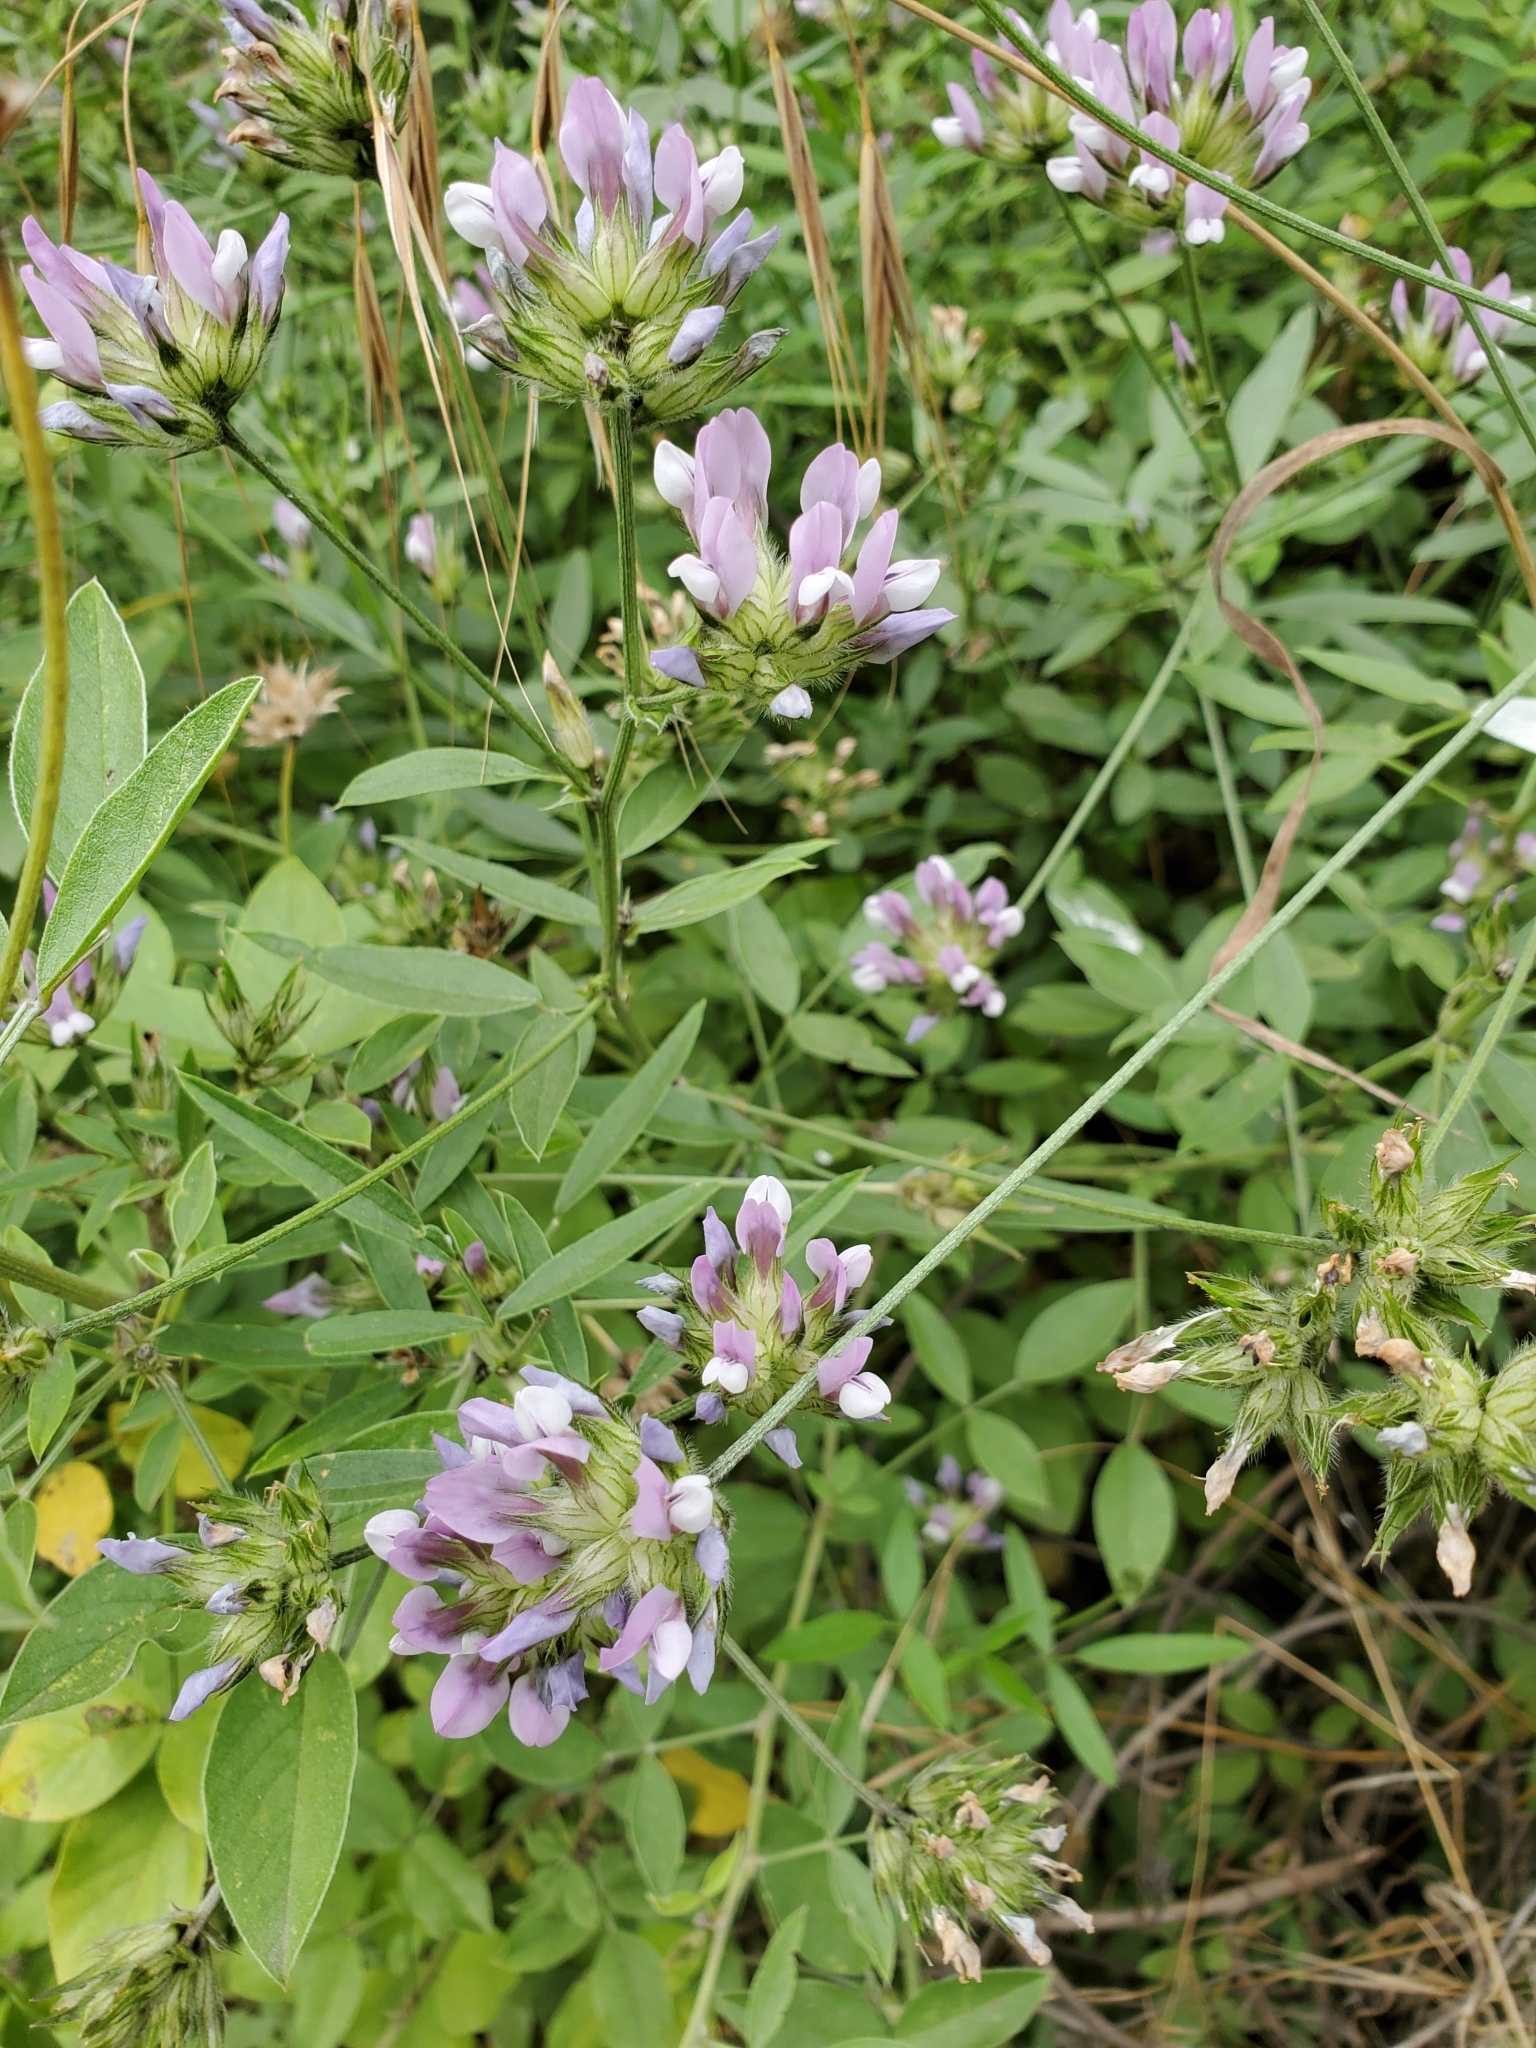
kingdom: Plantae
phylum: Tracheophyta
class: Magnoliopsida
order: Fabales
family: Fabaceae
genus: Bituminaria
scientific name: Bituminaria bituminosa
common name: Arabian pea
